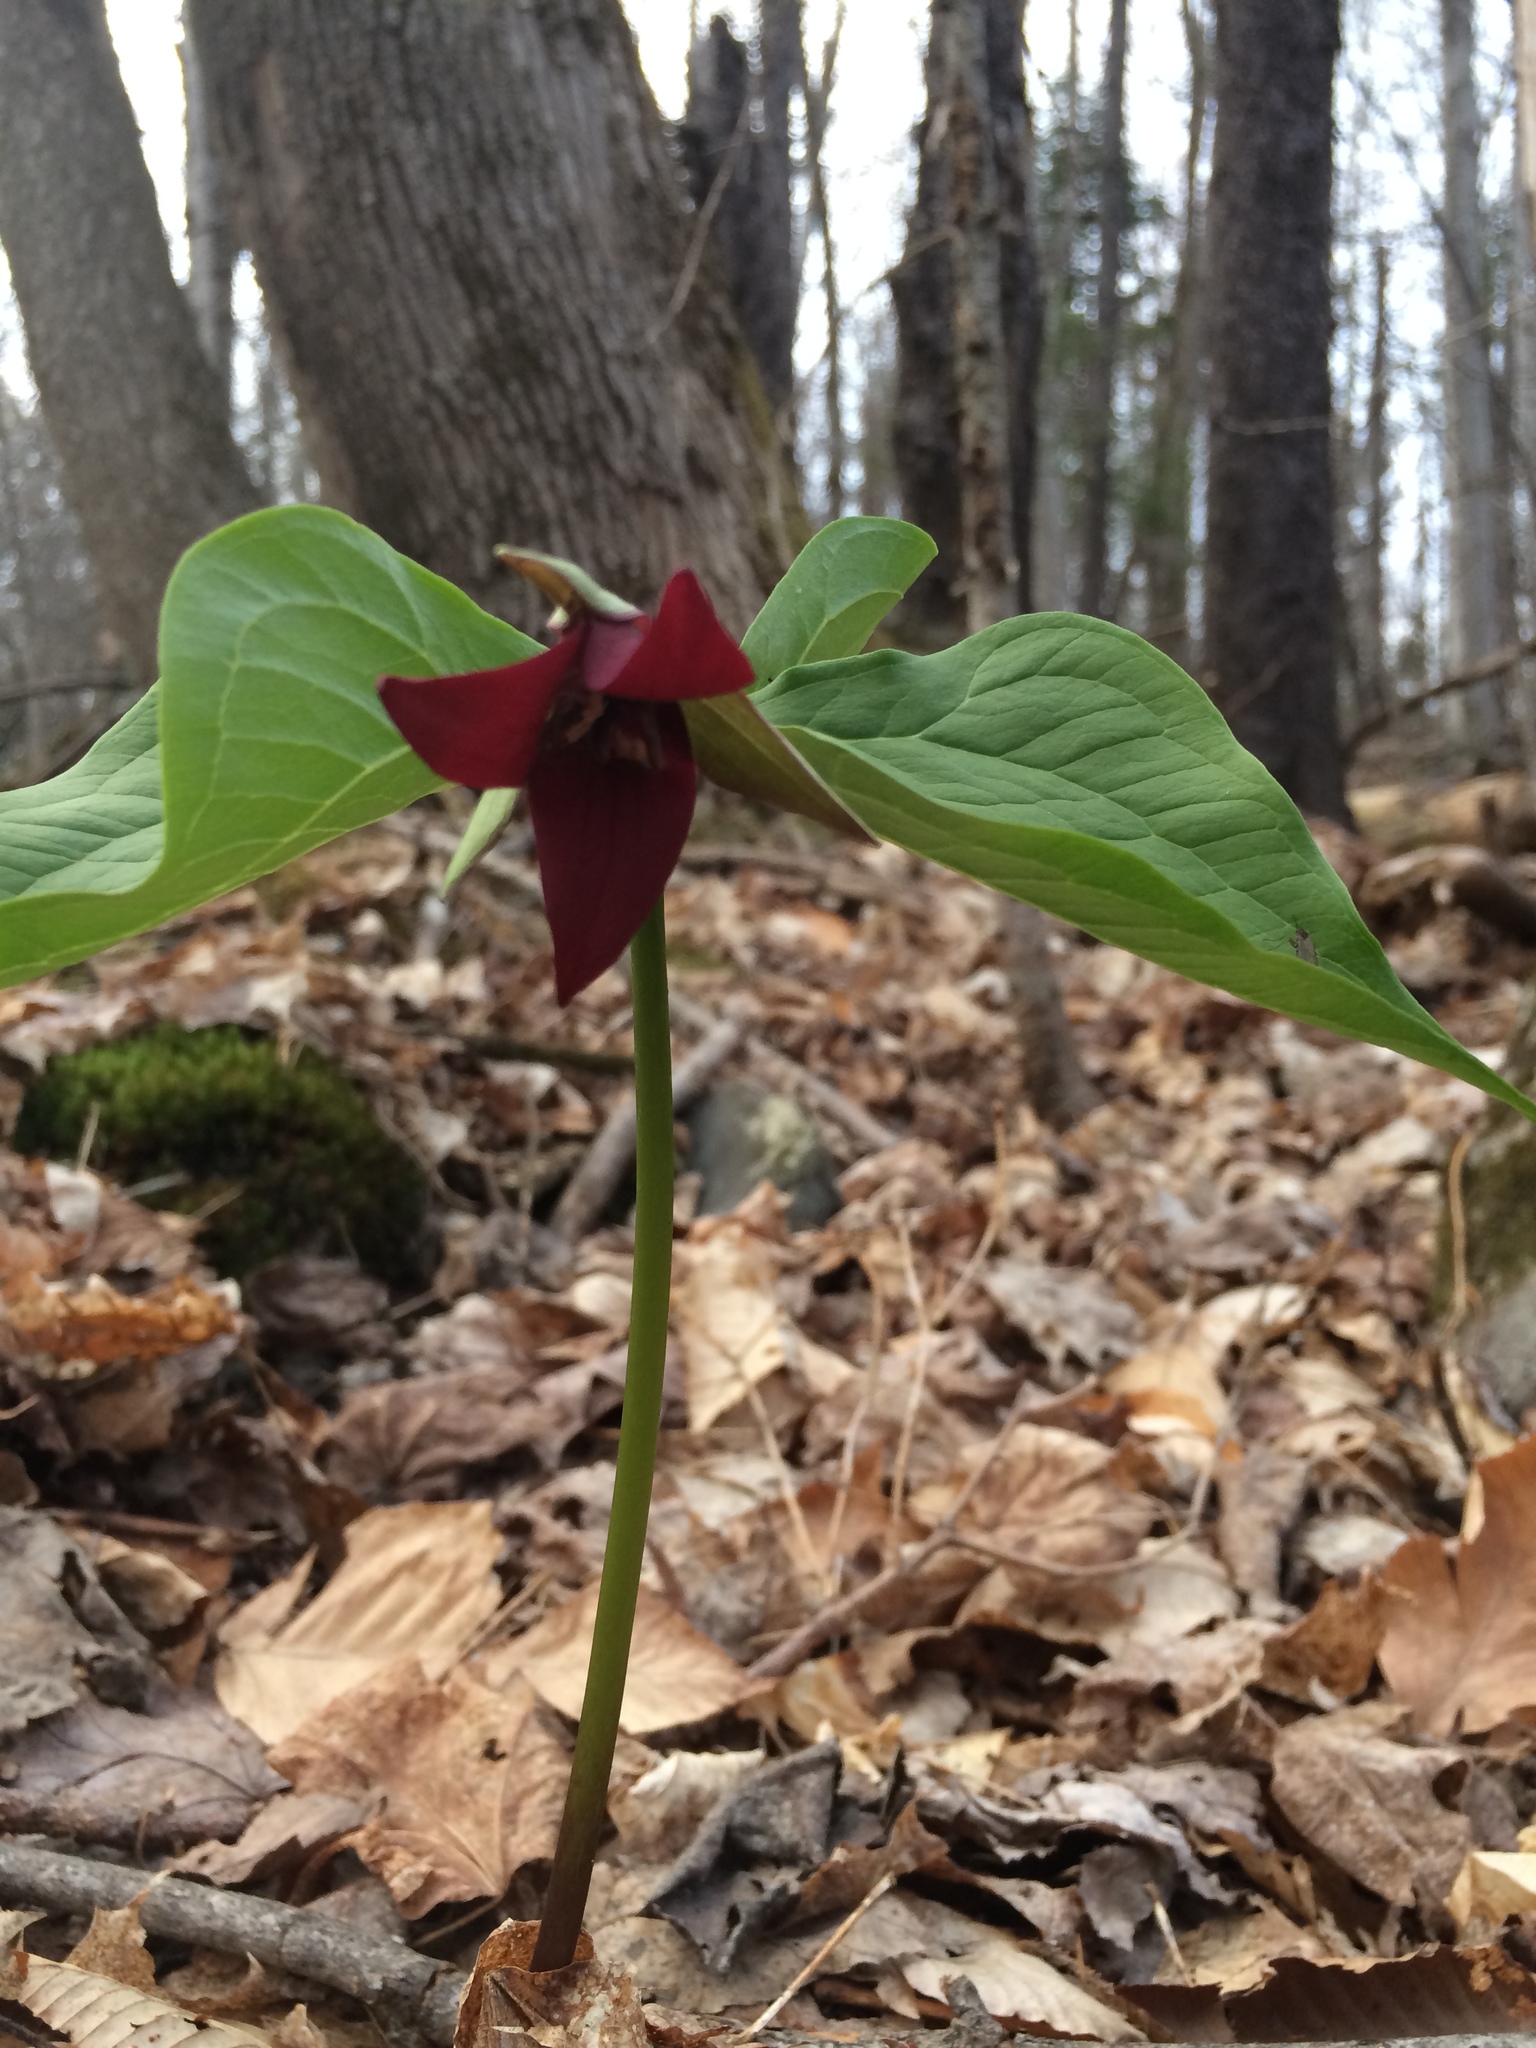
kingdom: Plantae
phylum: Tracheophyta
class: Liliopsida
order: Liliales
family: Melanthiaceae
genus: Trillium
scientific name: Trillium erectum
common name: Purple trillium
